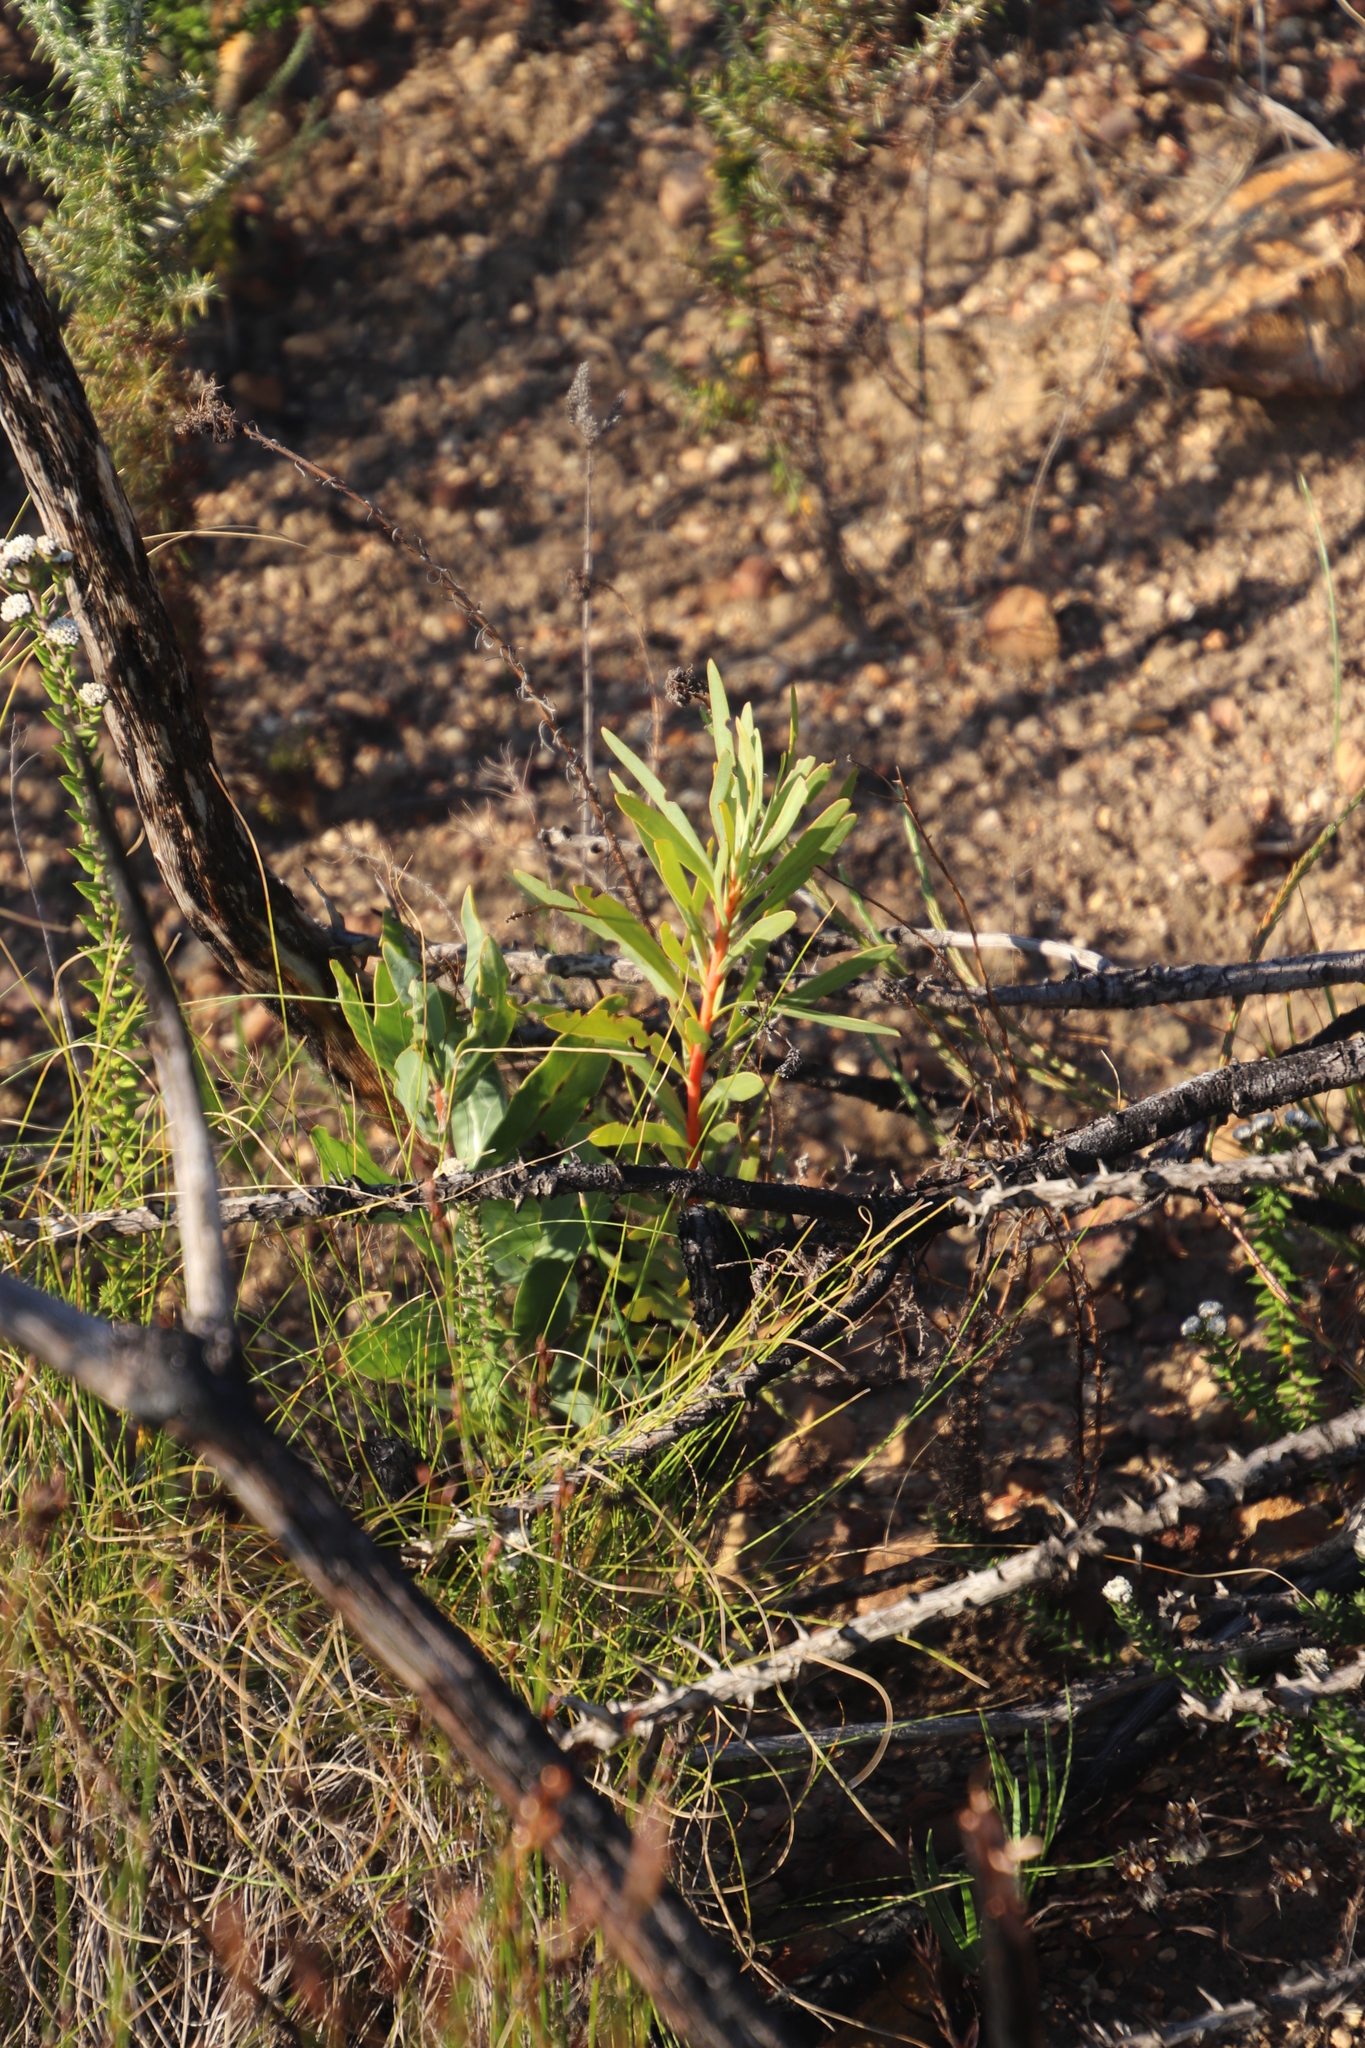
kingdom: Plantae
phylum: Tracheophyta
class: Magnoliopsida
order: Proteales
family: Proteaceae
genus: Protea
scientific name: Protea repens
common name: Sugarbush
